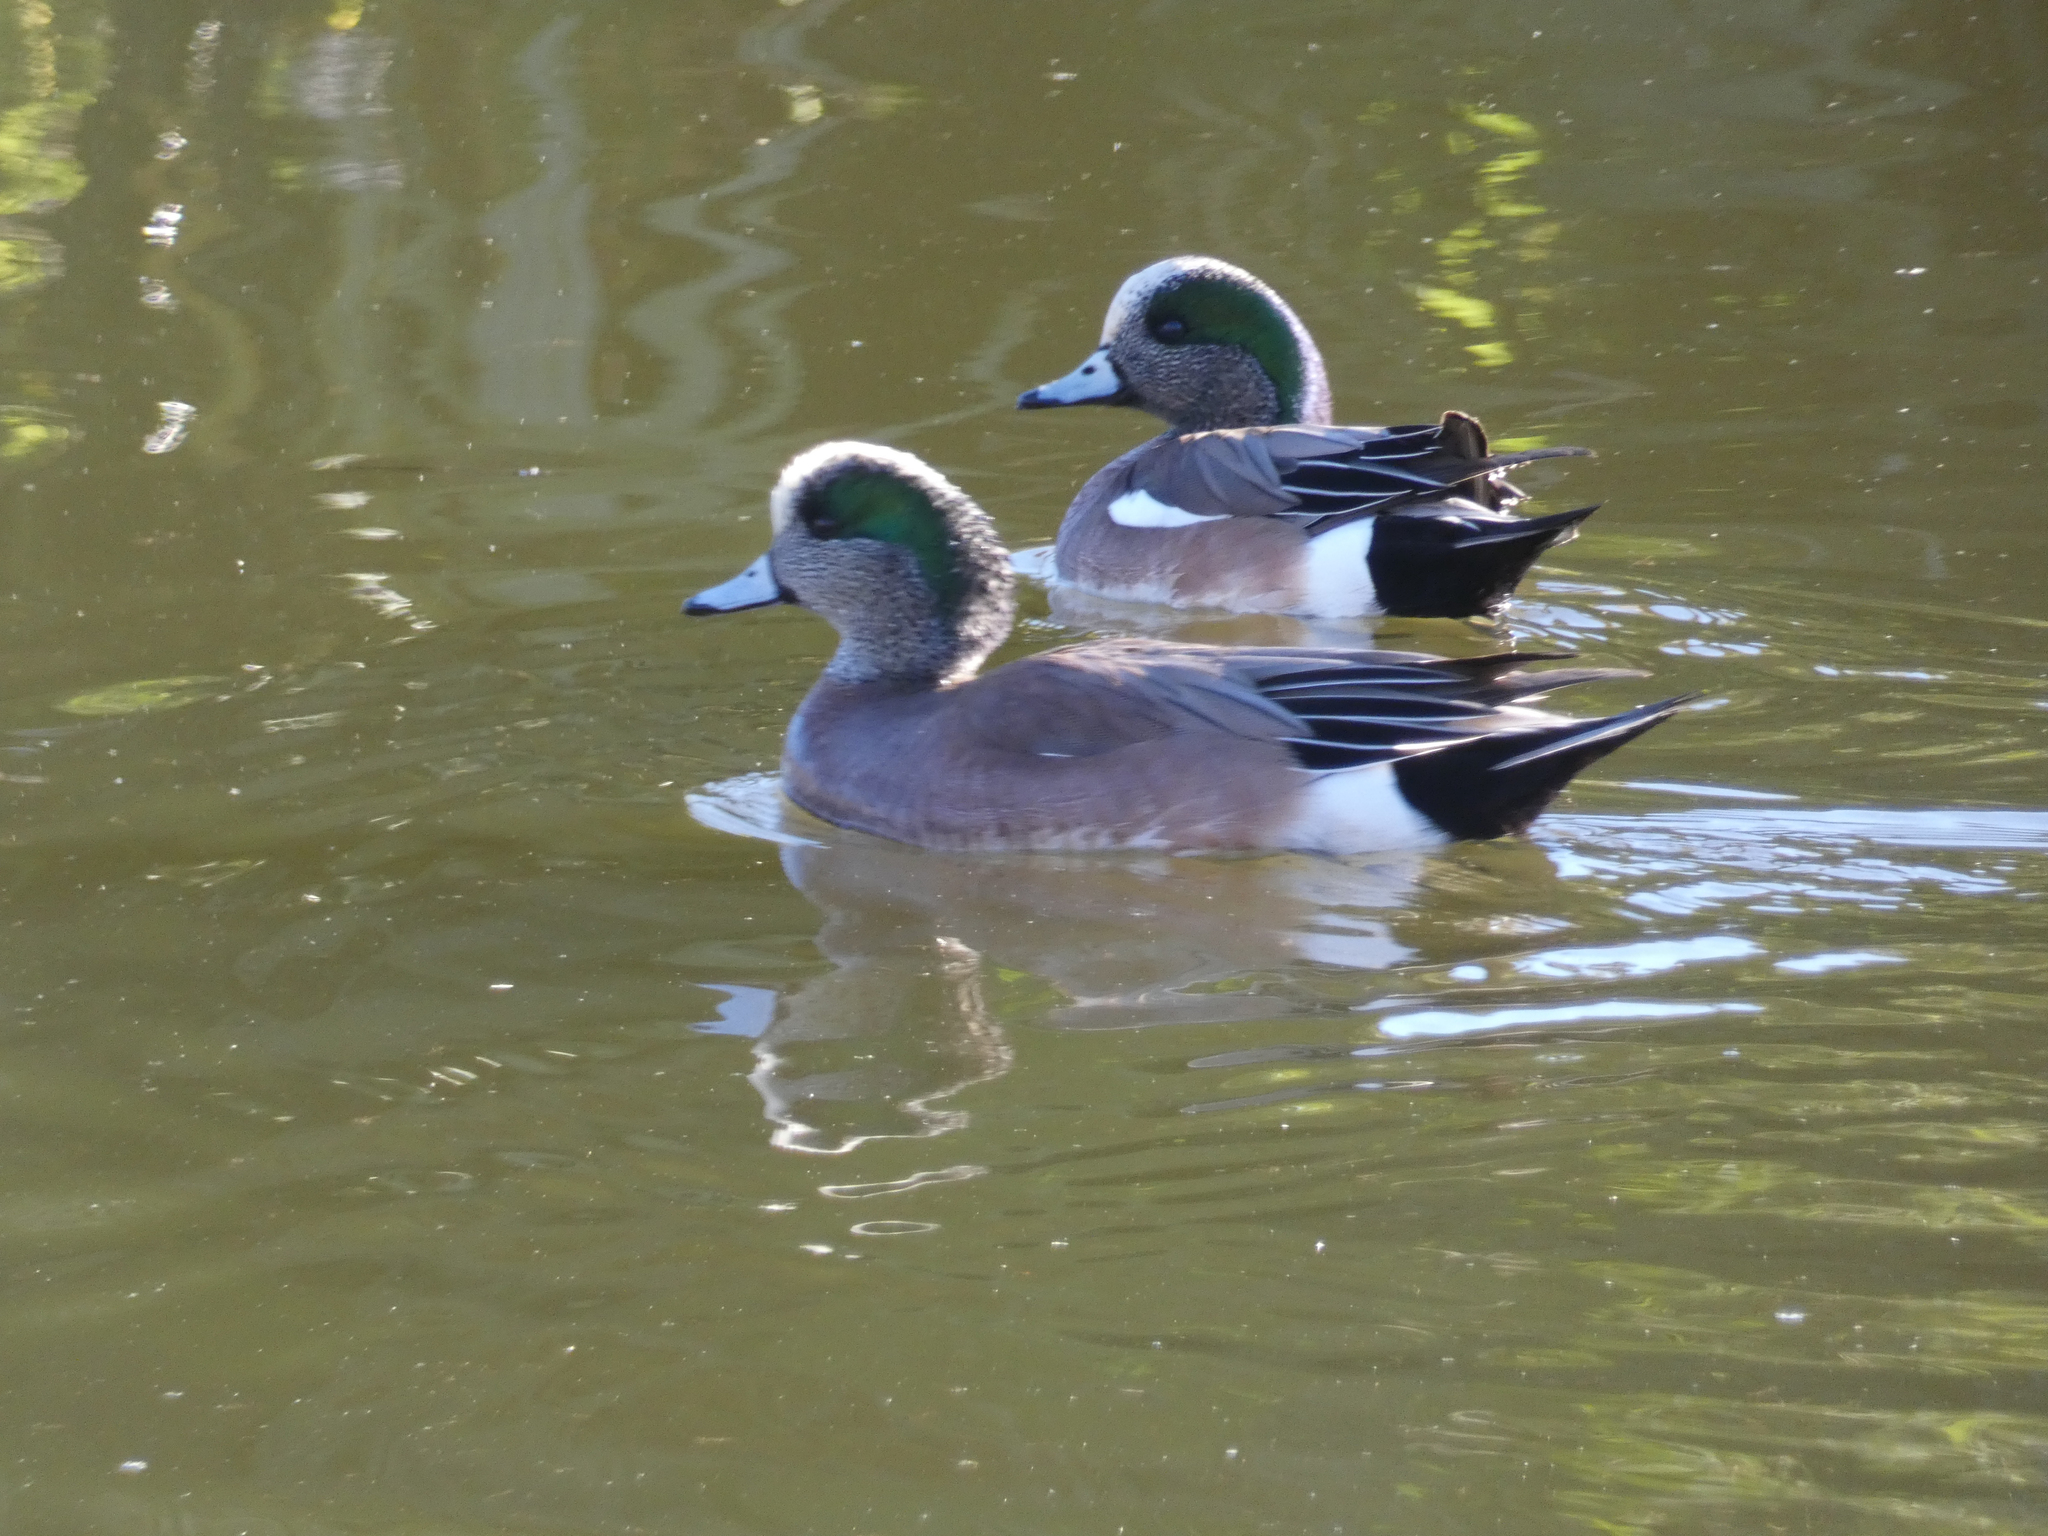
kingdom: Animalia
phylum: Chordata
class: Aves
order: Anseriformes
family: Anatidae
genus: Mareca
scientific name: Mareca americana
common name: American wigeon
